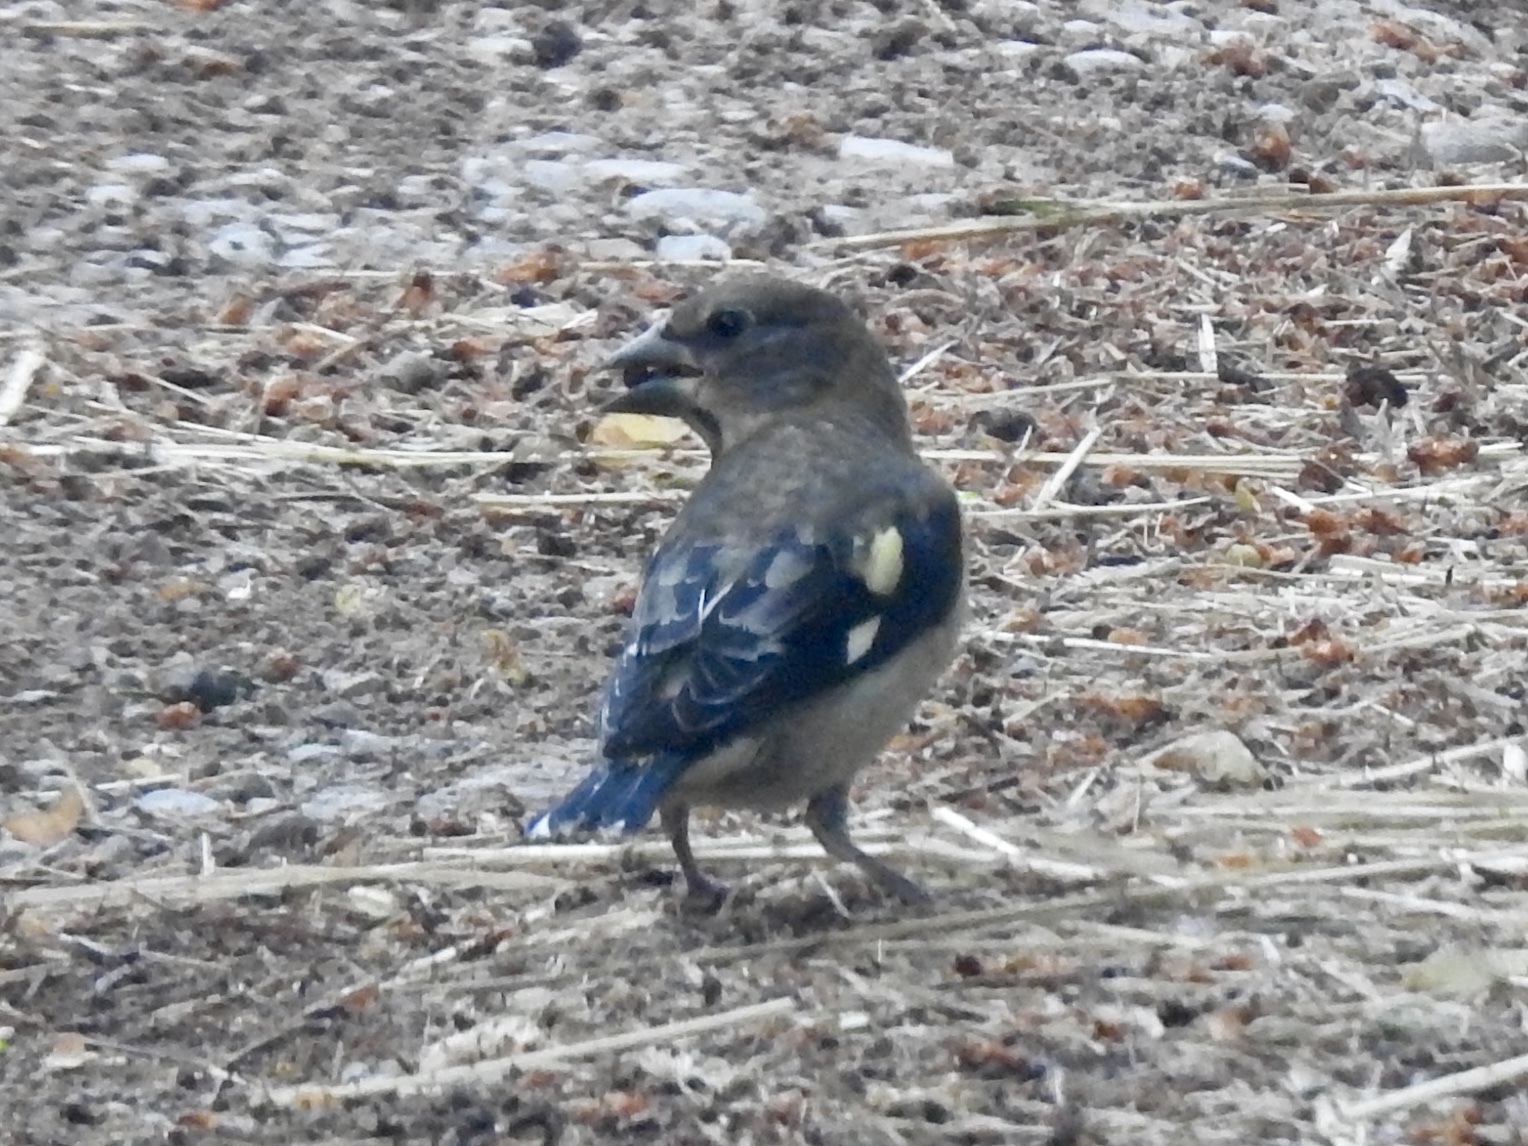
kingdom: Animalia
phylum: Chordata
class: Aves
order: Passeriformes
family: Fringillidae
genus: Hesperiphona
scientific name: Hesperiphona vespertina
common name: Evening grosbeak
